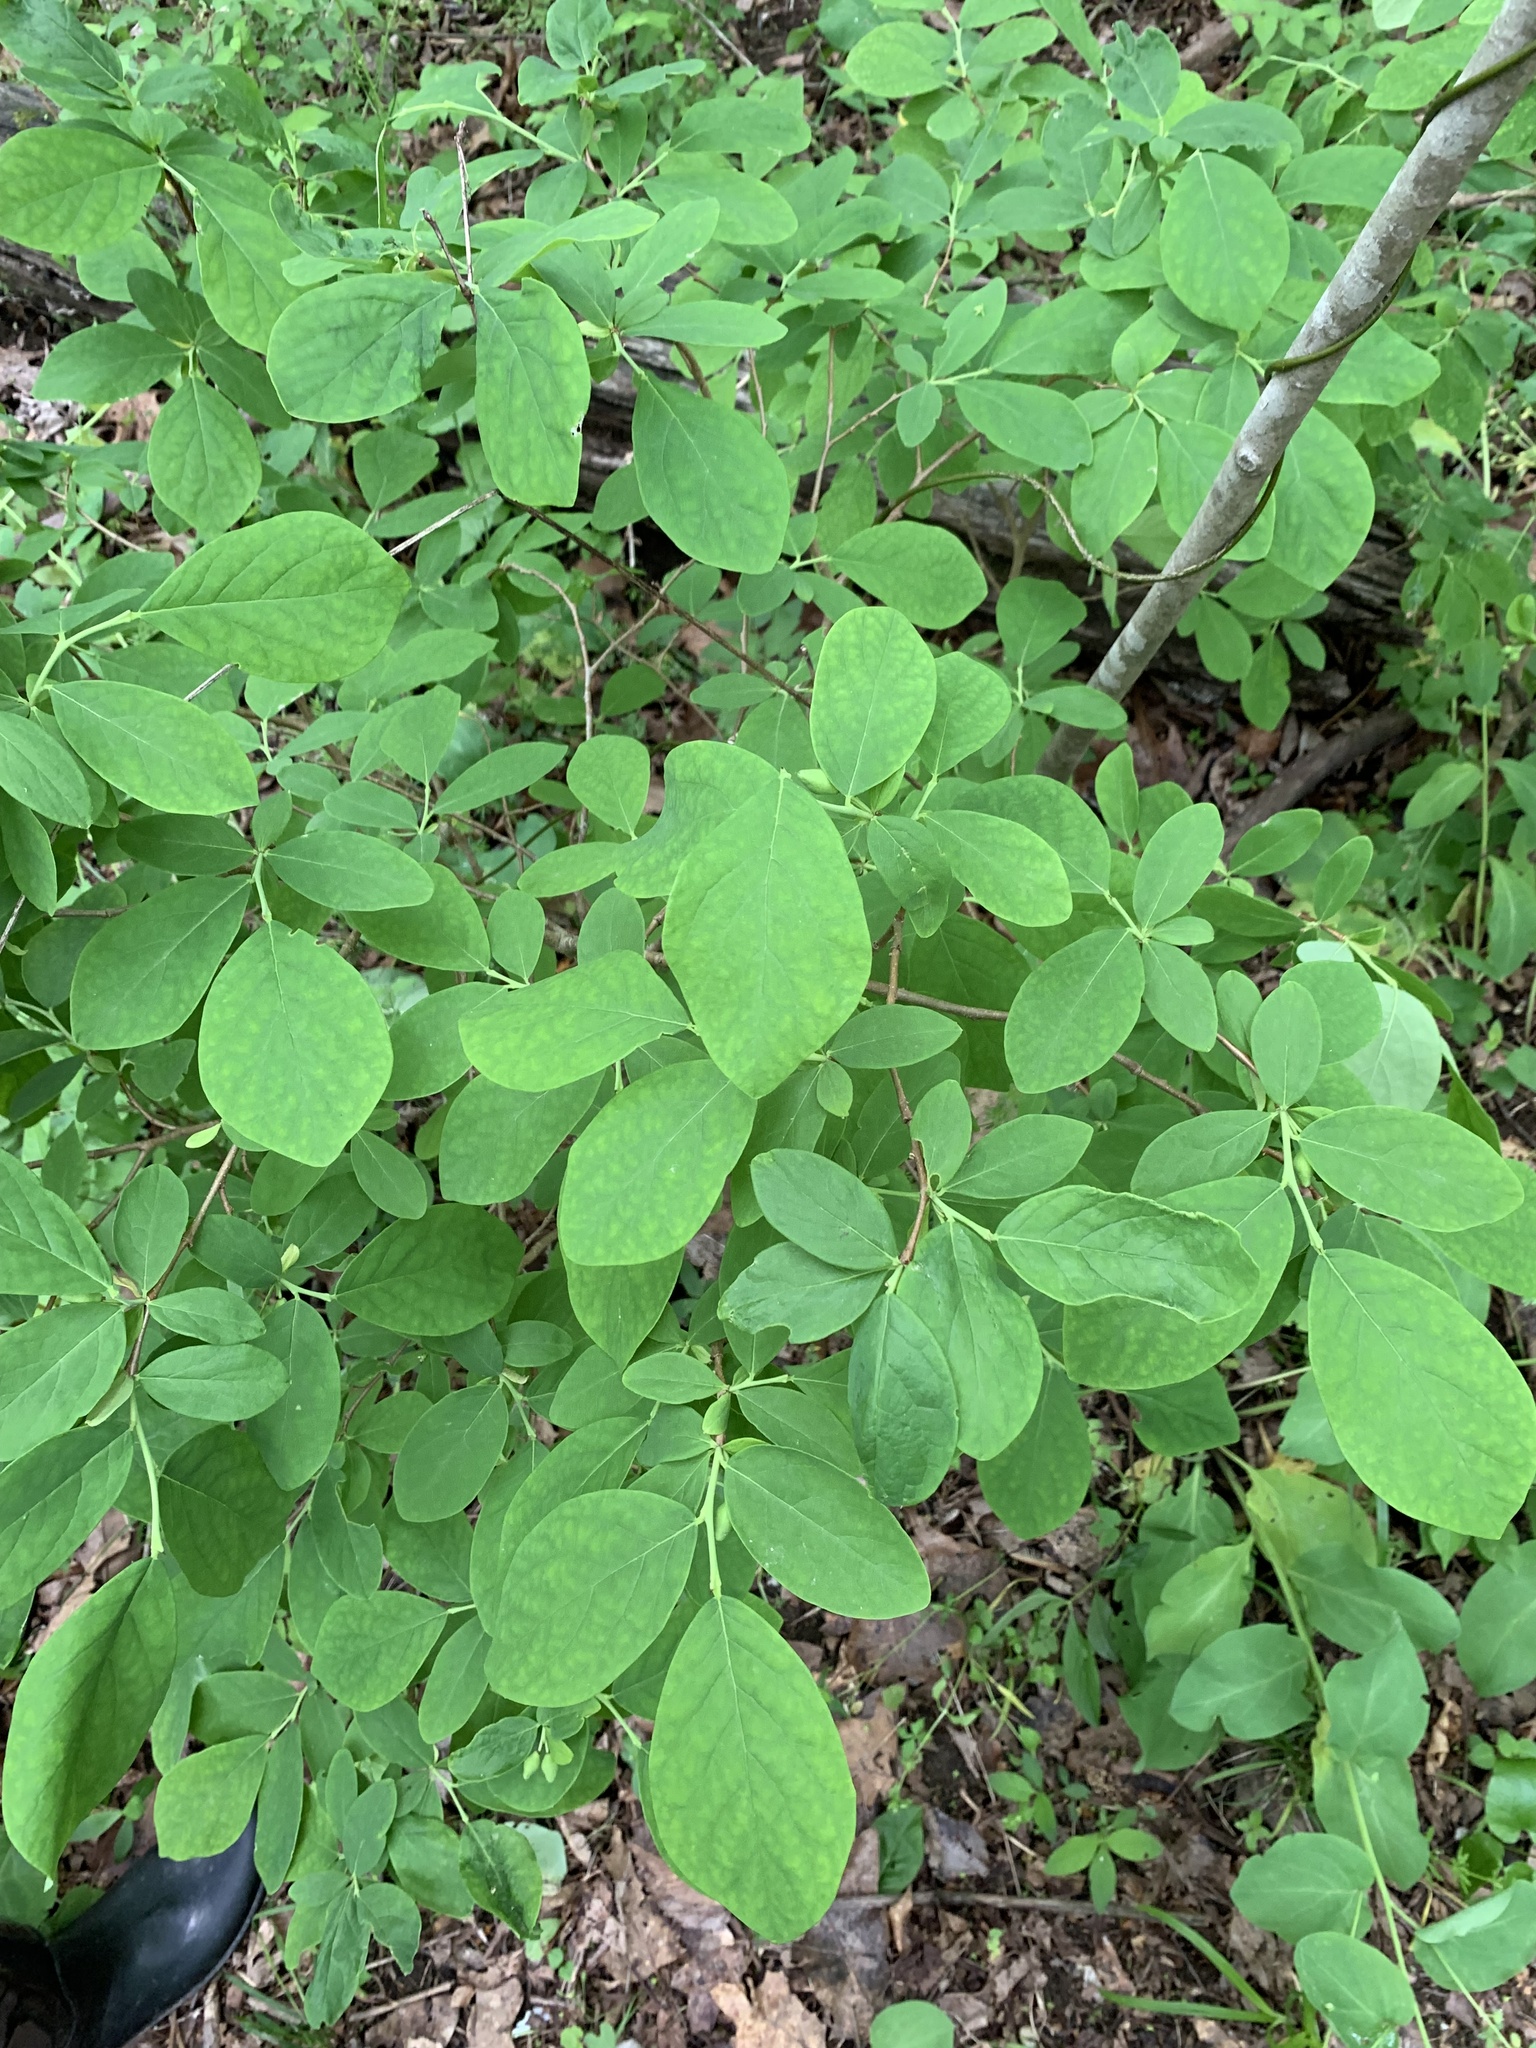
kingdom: Plantae
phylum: Tracheophyta
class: Magnoliopsida
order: Malvales
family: Thymelaeaceae
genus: Dirca
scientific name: Dirca palustris
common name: Leatherwood
